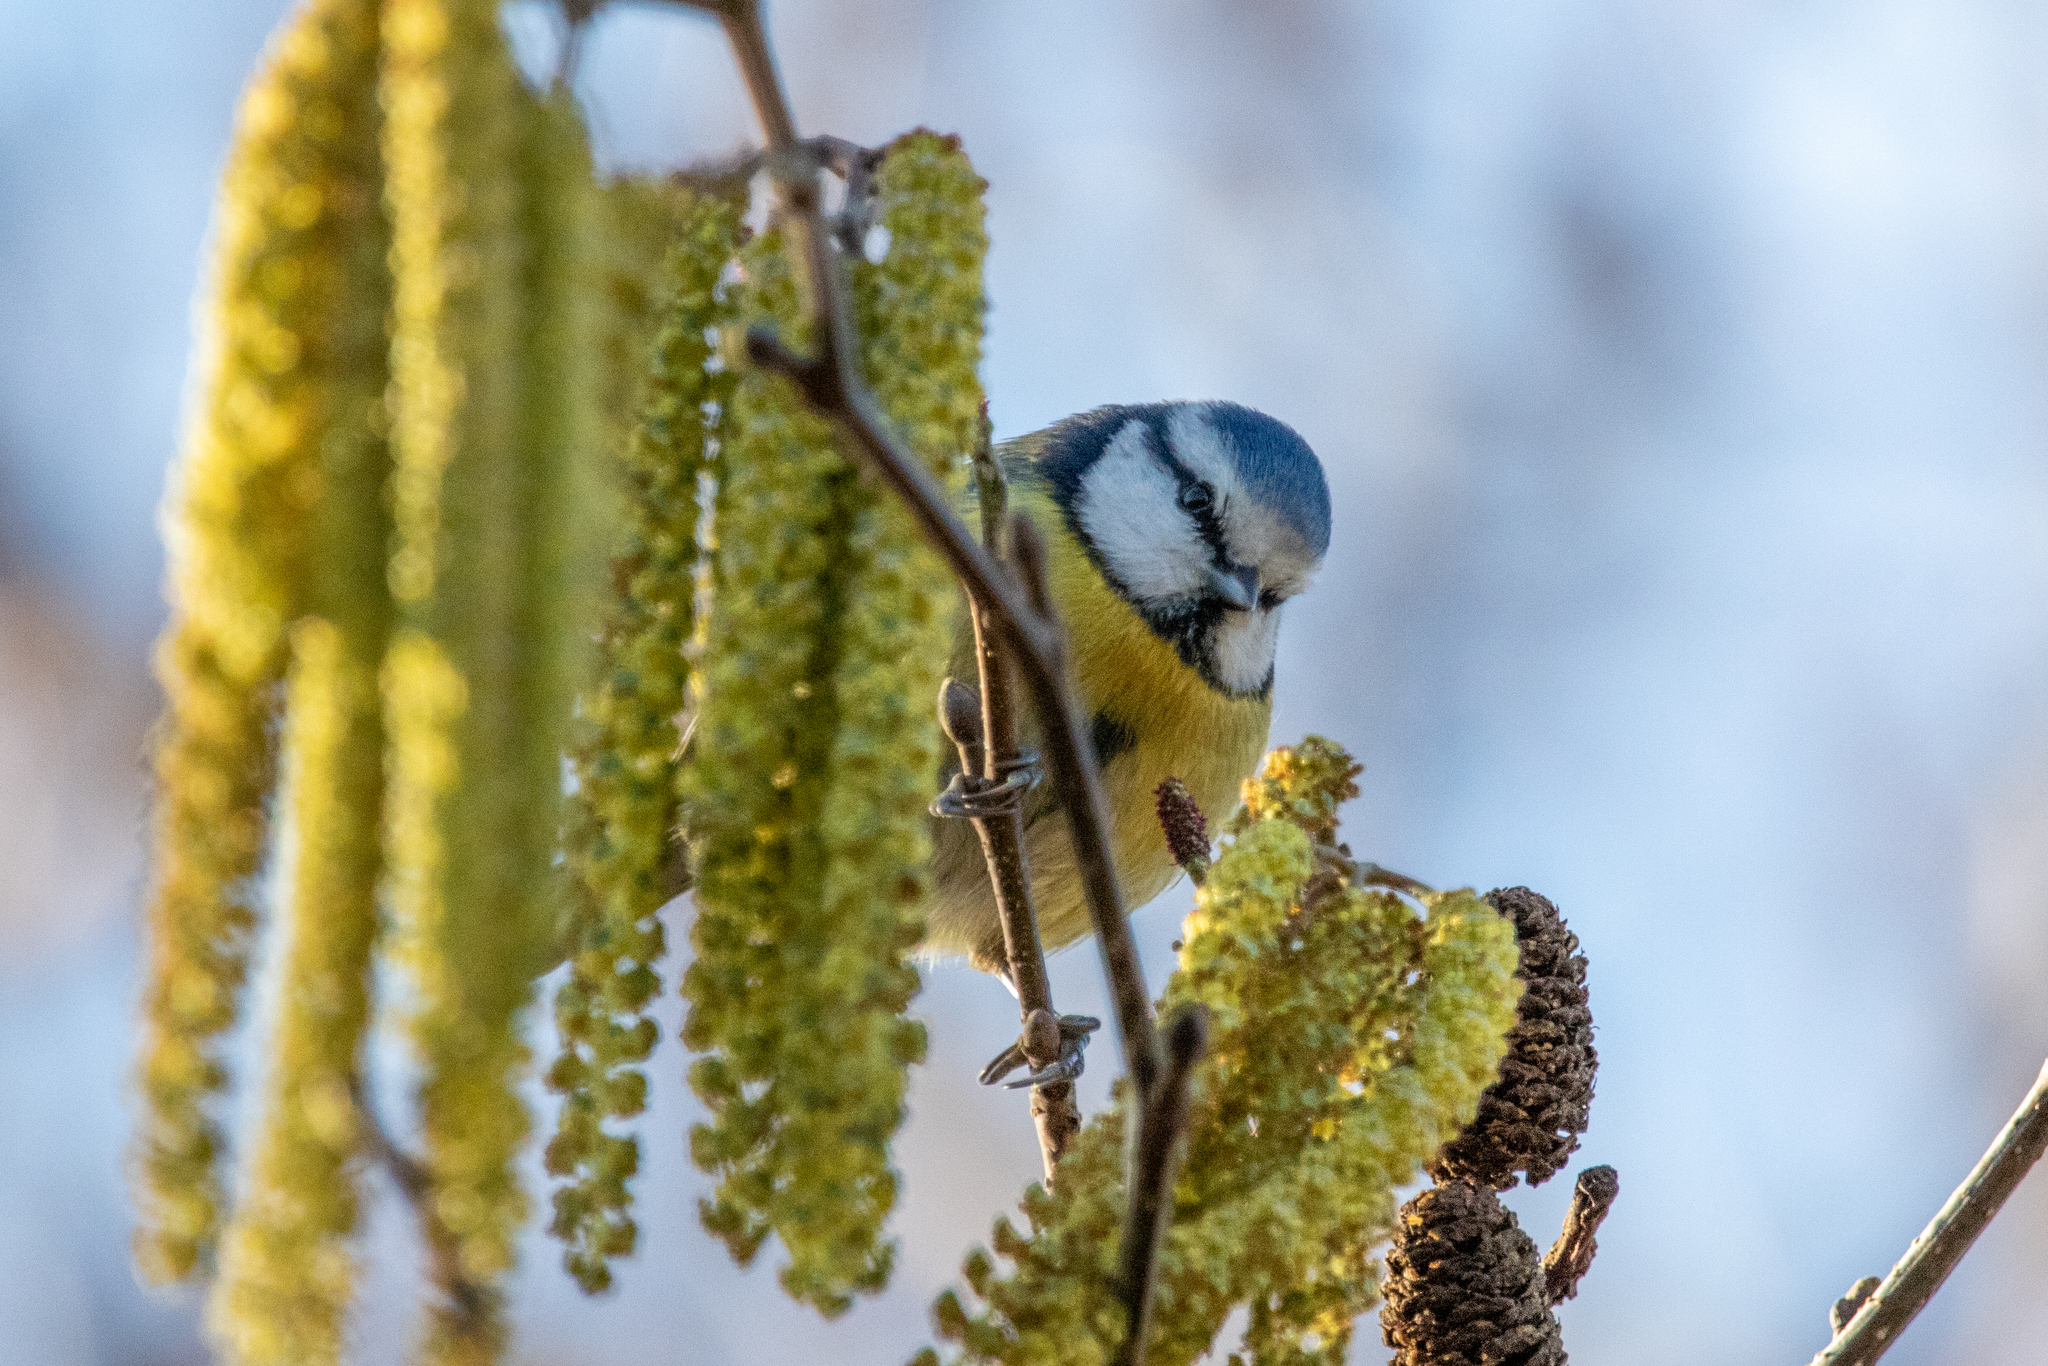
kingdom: Animalia
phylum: Chordata
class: Aves
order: Passeriformes
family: Paridae
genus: Cyanistes
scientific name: Cyanistes caeruleus
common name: Eurasian blue tit
